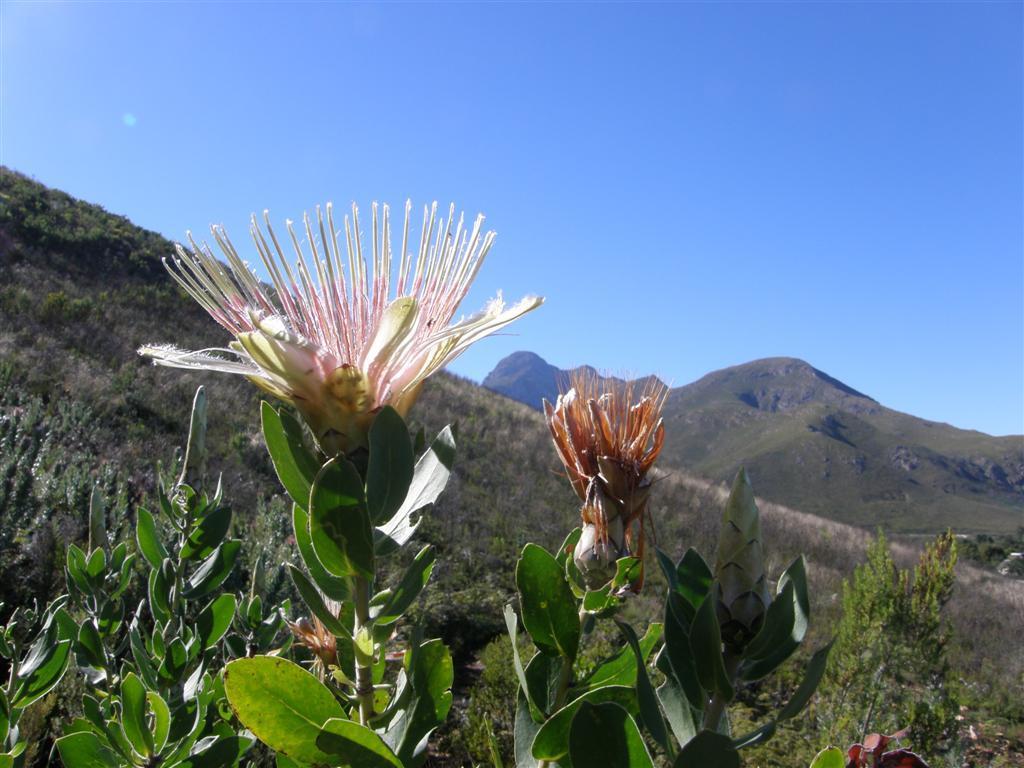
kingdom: Plantae
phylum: Tracheophyta
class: Magnoliopsida
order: Proteales
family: Proteaceae
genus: Protea
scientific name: Protea aurea
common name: Shuttlecock sugarbush
